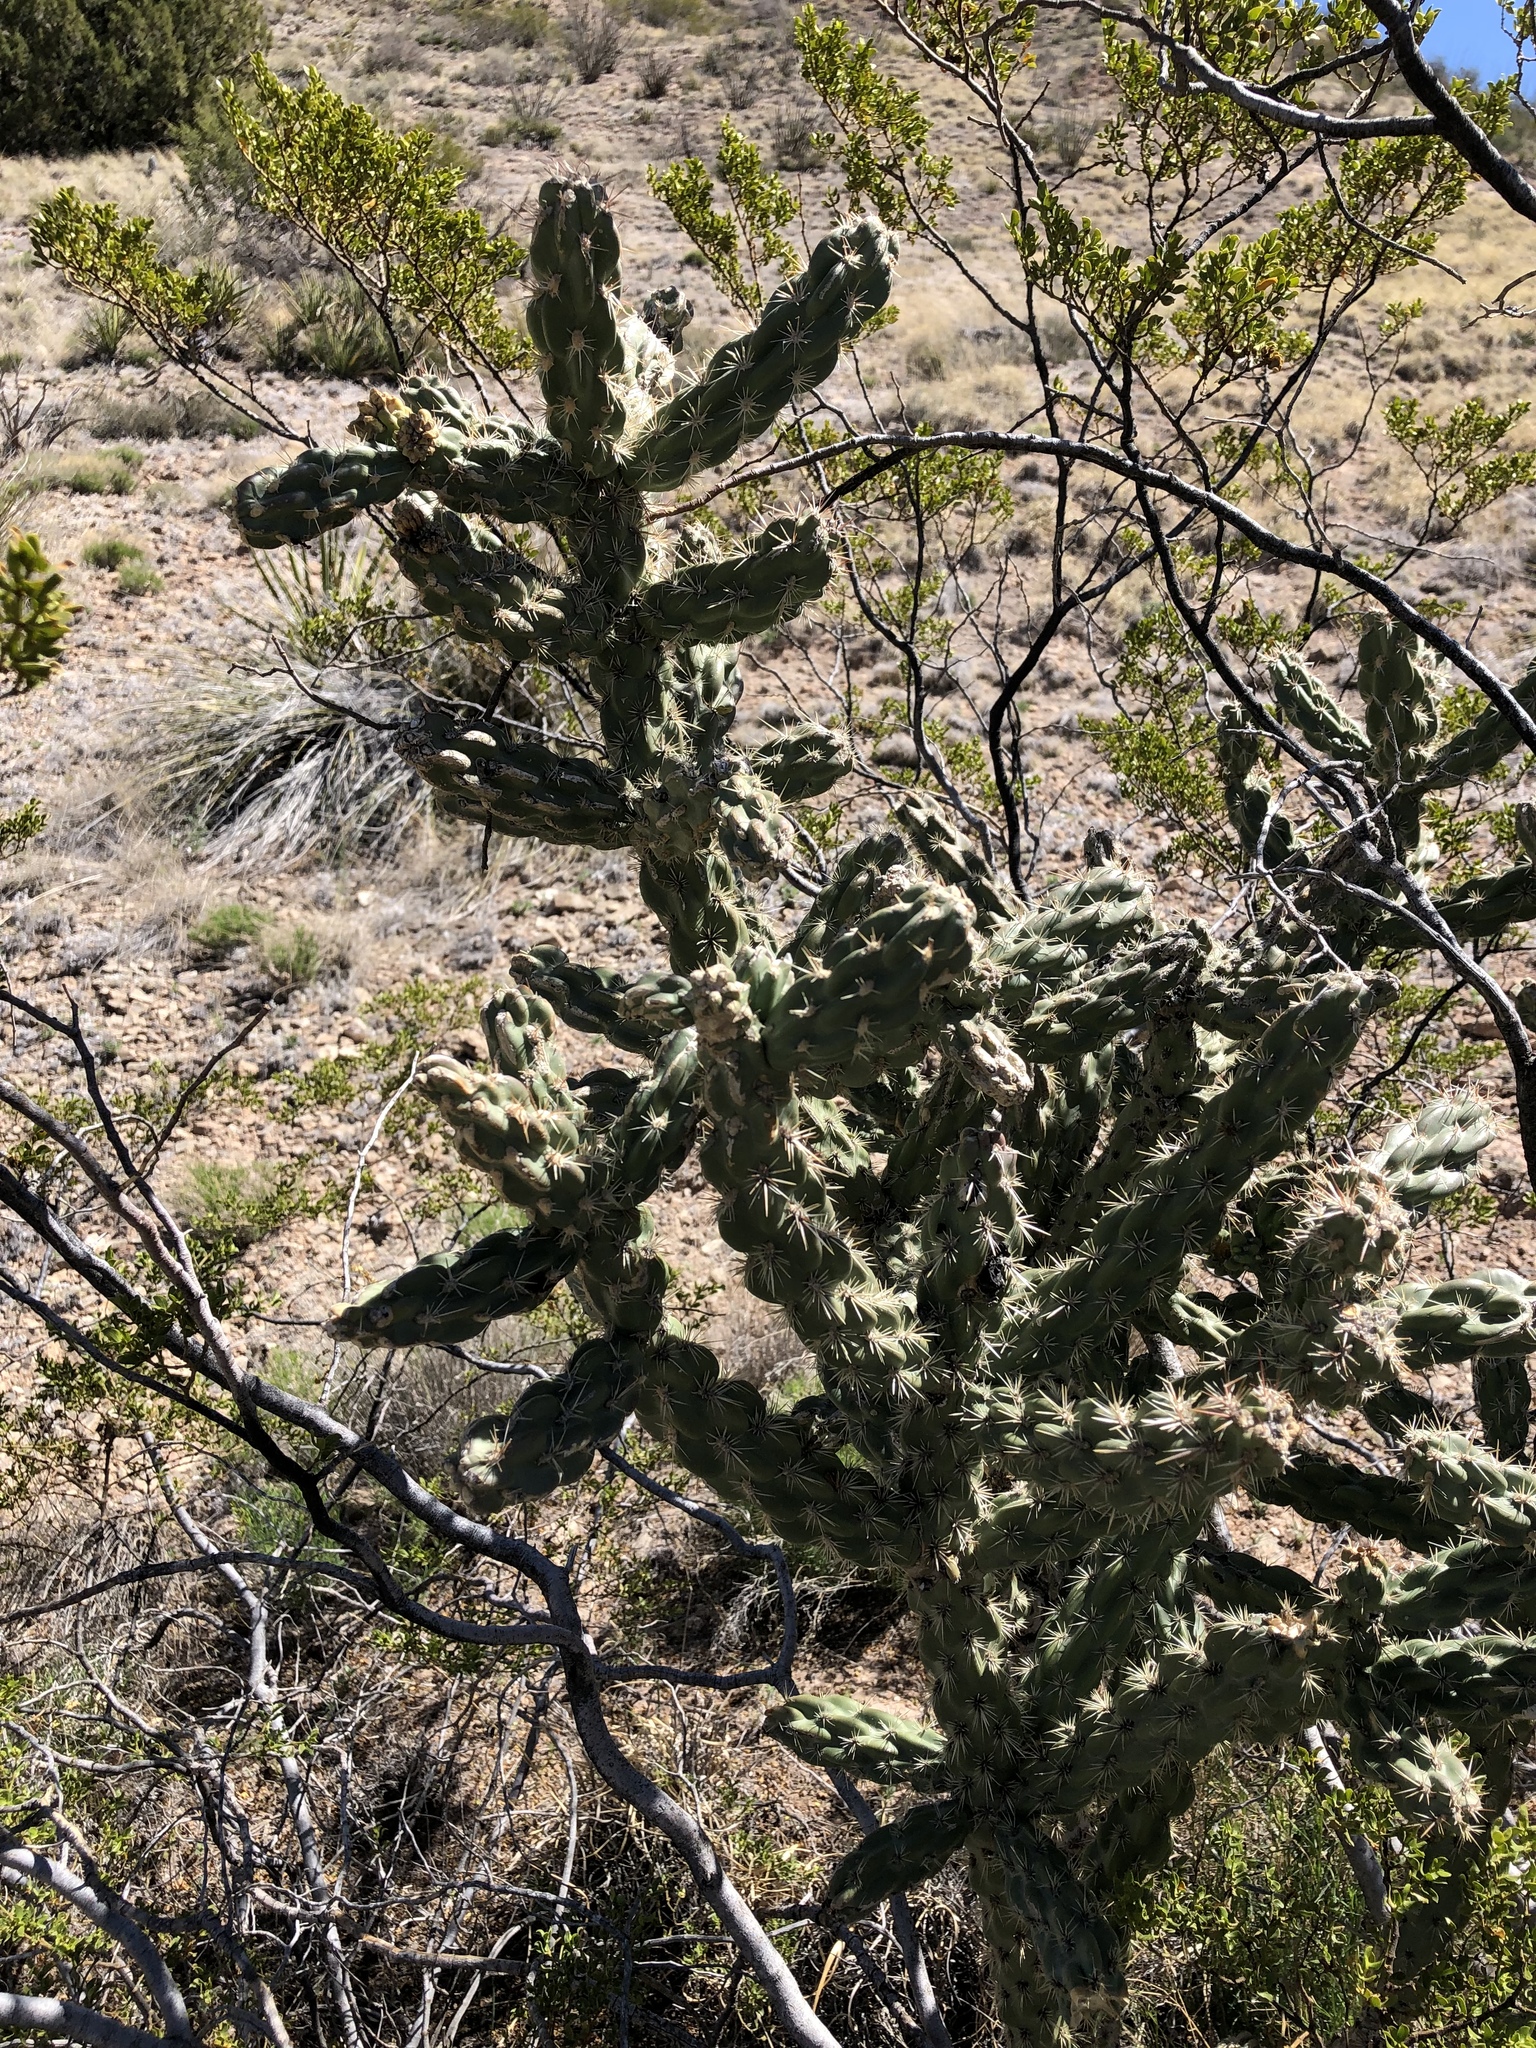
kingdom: Plantae
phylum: Tracheophyta
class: Magnoliopsida
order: Caryophyllales
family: Cactaceae
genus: Cylindropuntia
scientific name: Cylindropuntia imbricata
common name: Candelabrum cactus
